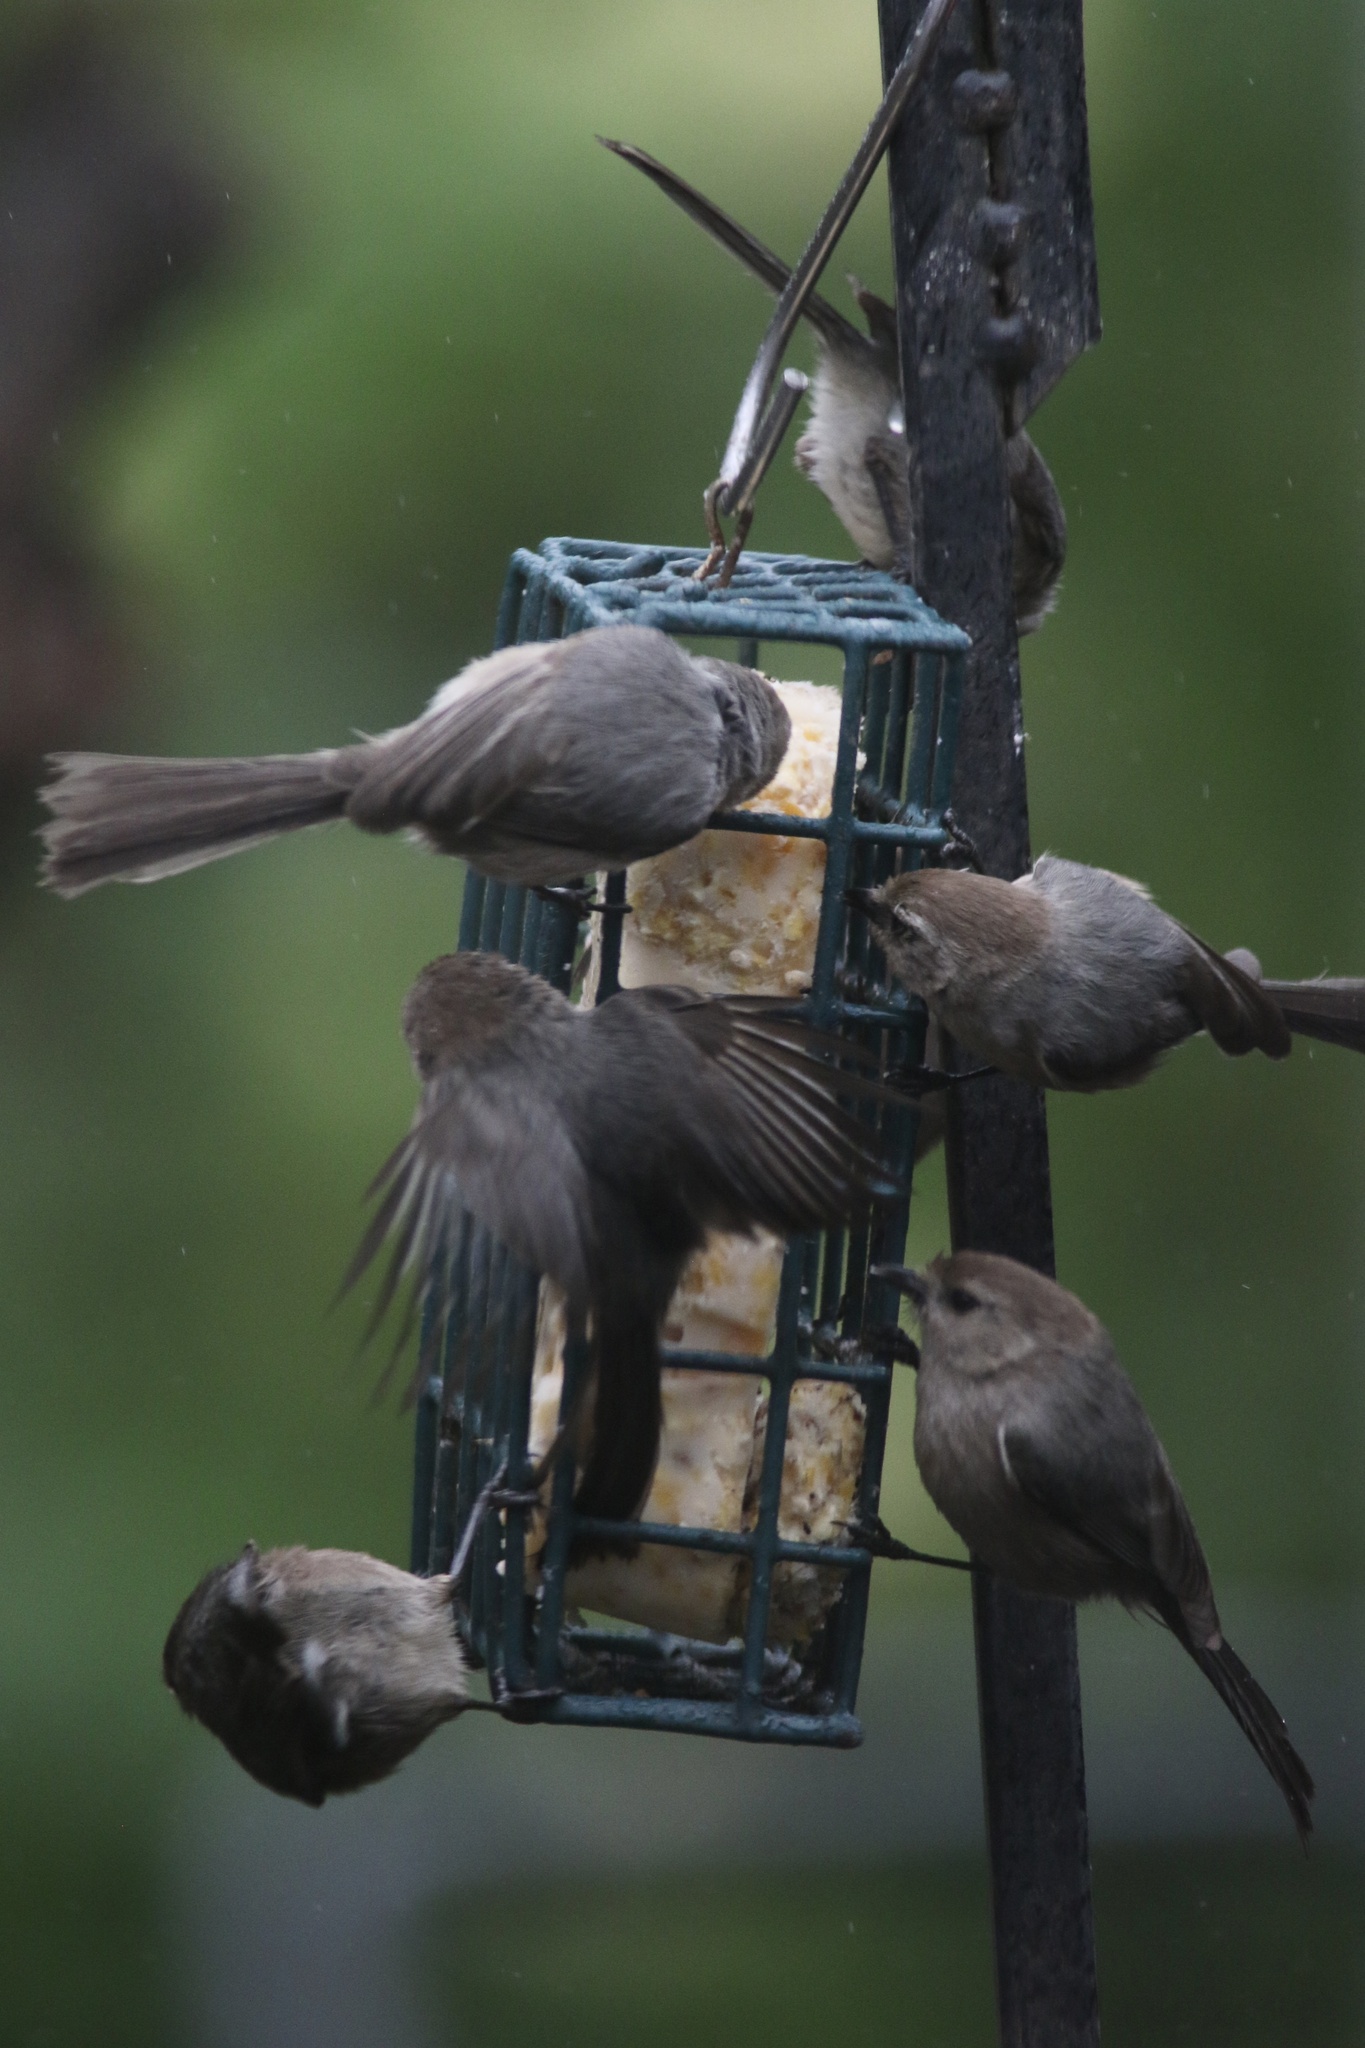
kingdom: Animalia
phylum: Chordata
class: Aves
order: Passeriformes
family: Aegithalidae
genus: Psaltriparus
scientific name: Psaltriparus minimus
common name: American bushtit
